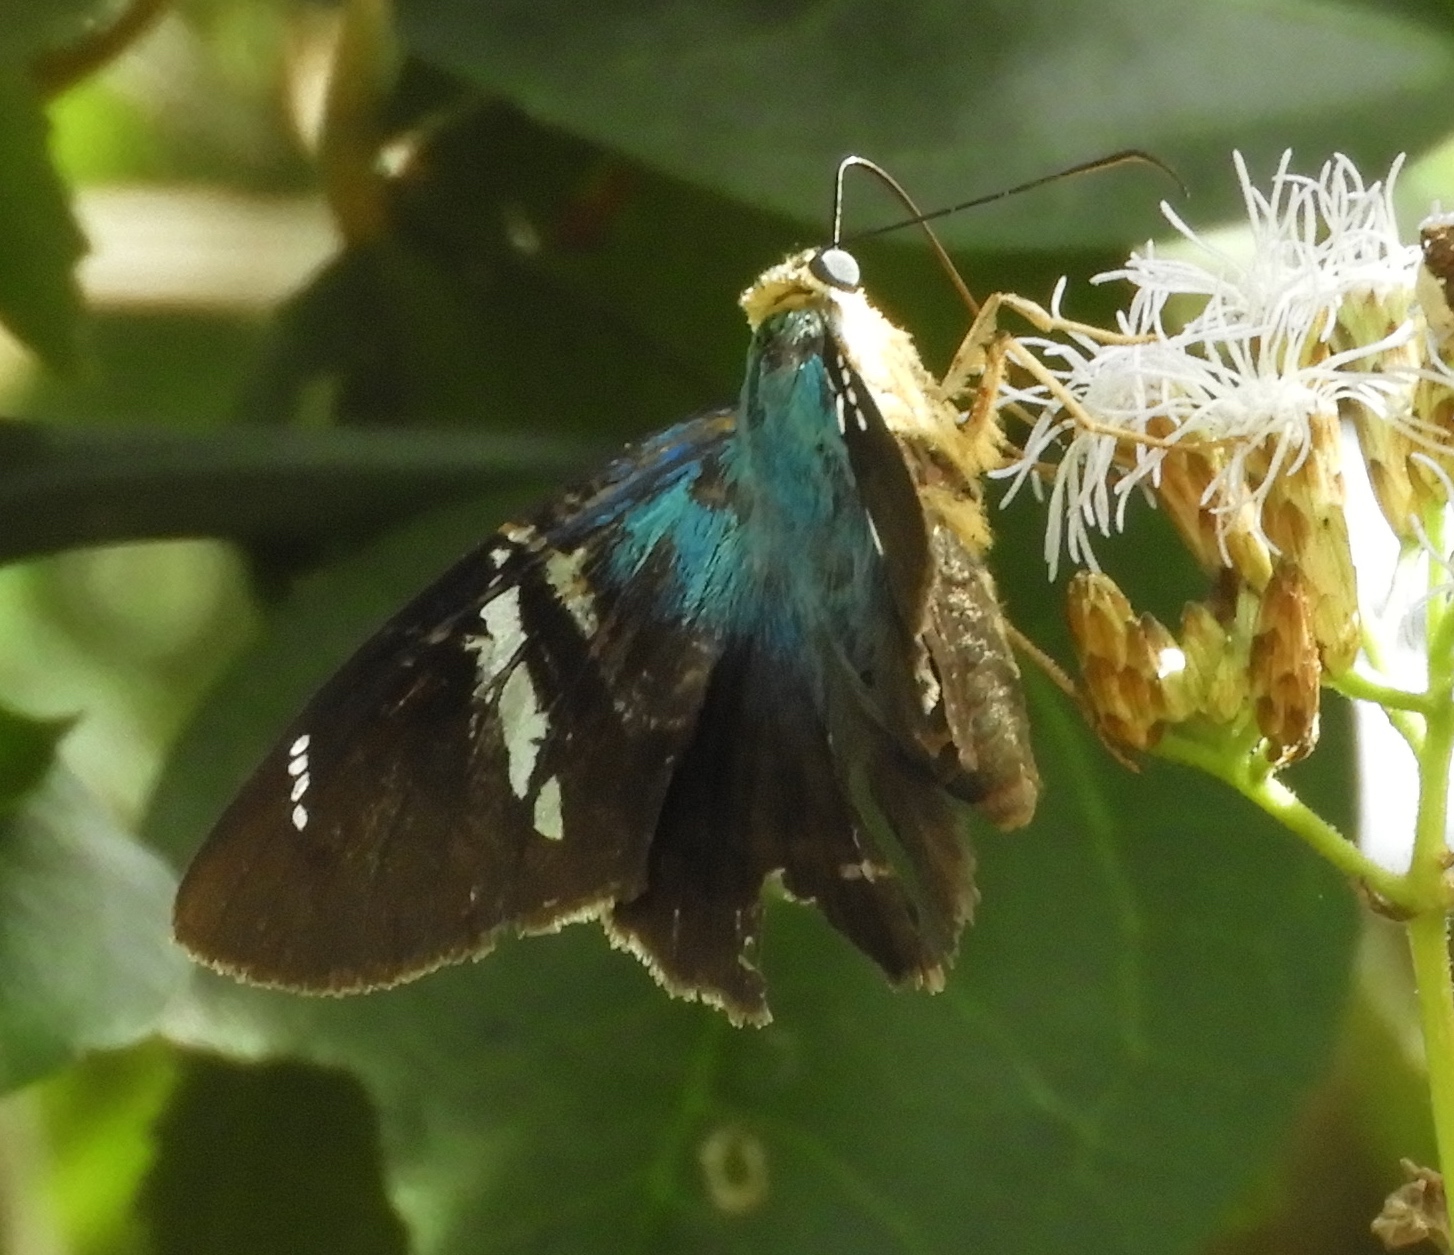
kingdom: Animalia
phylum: Arthropoda
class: Insecta
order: Lepidoptera
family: Hesperiidae
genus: Astraptes
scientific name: Astraptes fulgerator
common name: Two-barred flasher
